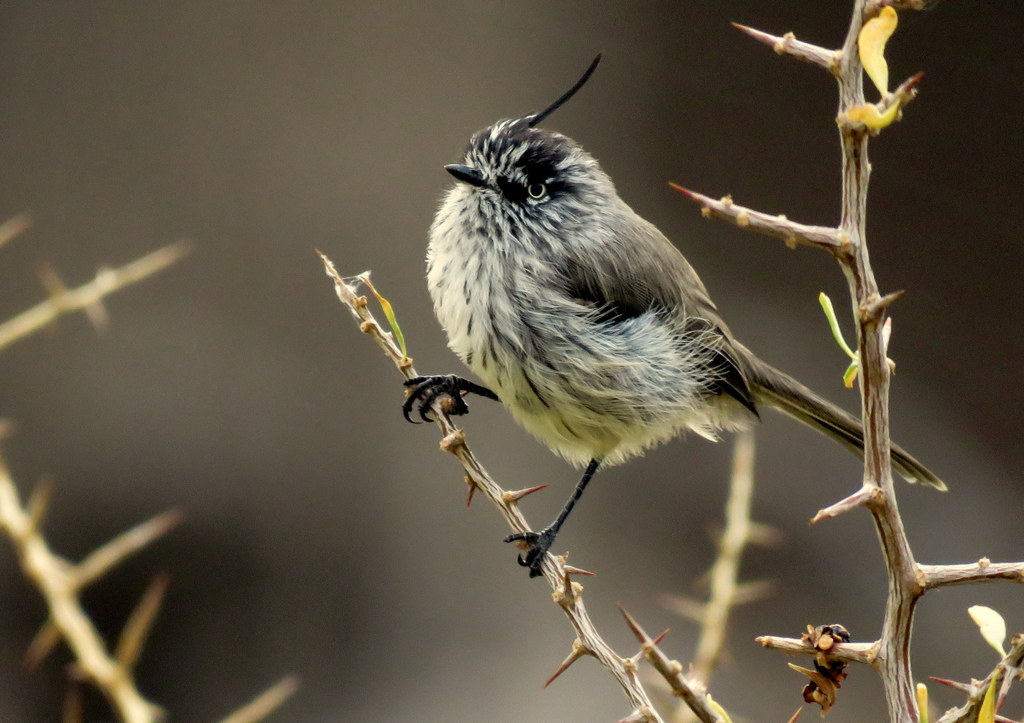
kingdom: Animalia
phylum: Chordata
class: Aves
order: Passeriformes
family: Tyrannidae
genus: Anairetes
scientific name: Anairetes parulus
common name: Tufted tit-tyrant
